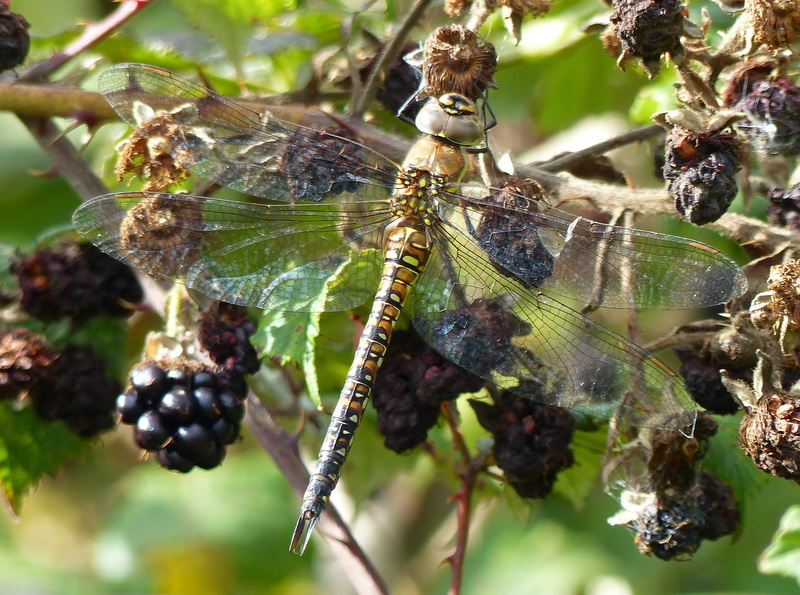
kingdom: Animalia
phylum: Arthropoda
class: Insecta
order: Odonata
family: Aeshnidae
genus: Aeshna
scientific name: Aeshna mixta
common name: Migrant hawker
